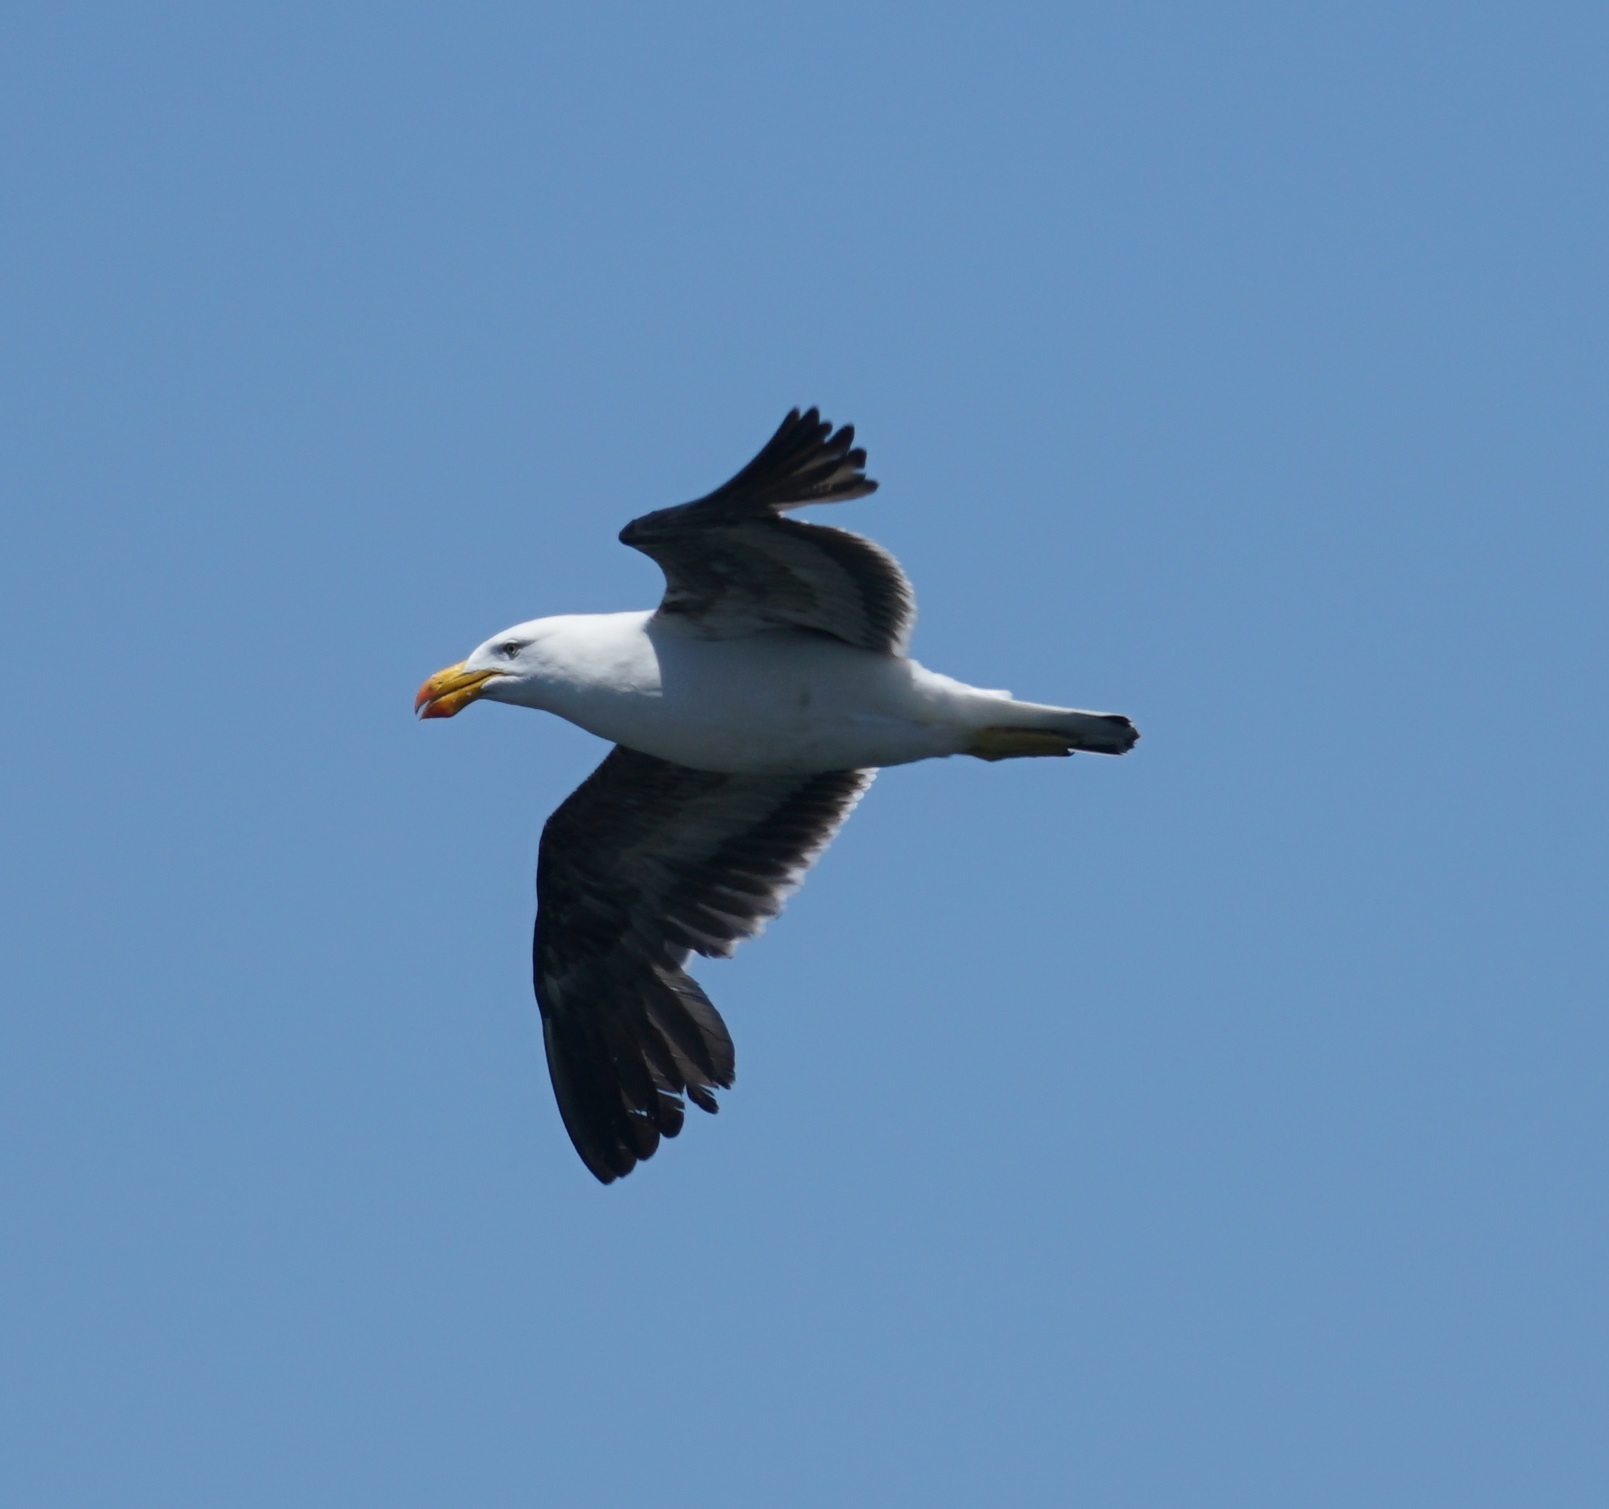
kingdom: Animalia
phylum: Chordata
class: Aves
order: Charadriiformes
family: Laridae
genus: Larus
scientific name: Larus pacificus
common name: Pacific gull
